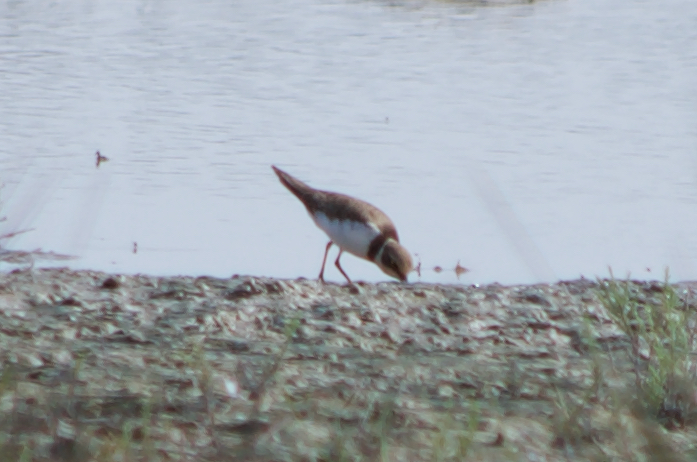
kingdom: Animalia
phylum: Chordata
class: Aves
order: Charadriiformes
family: Charadriidae
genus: Charadrius
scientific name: Charadrius dubius
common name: Little ringed plover
